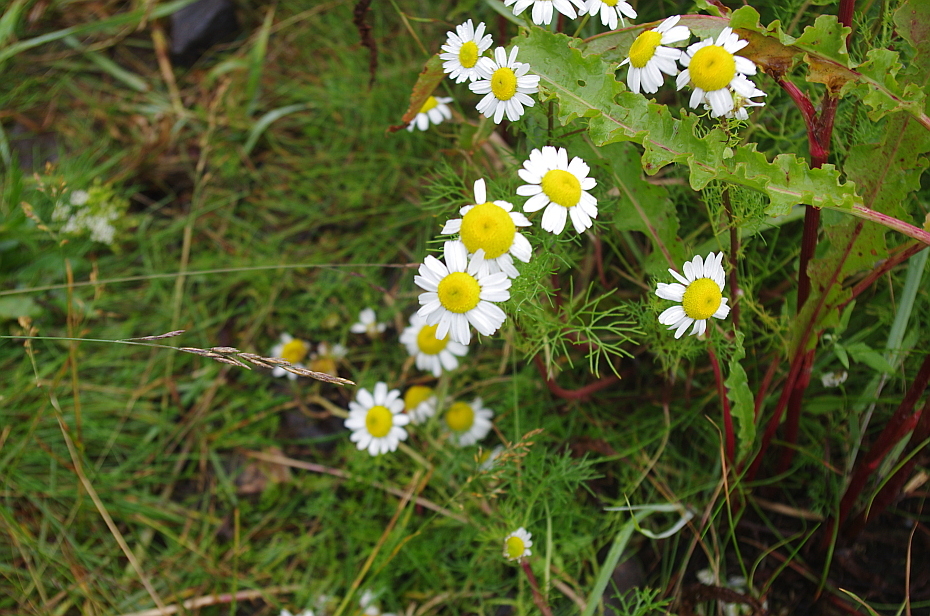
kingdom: Plantae
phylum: Tracheophyta
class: Magnoliopsida
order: Asterales
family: Asteraceae
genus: Tripleurospermum
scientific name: Tripleurospermum maritimum
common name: Sea mayweed
